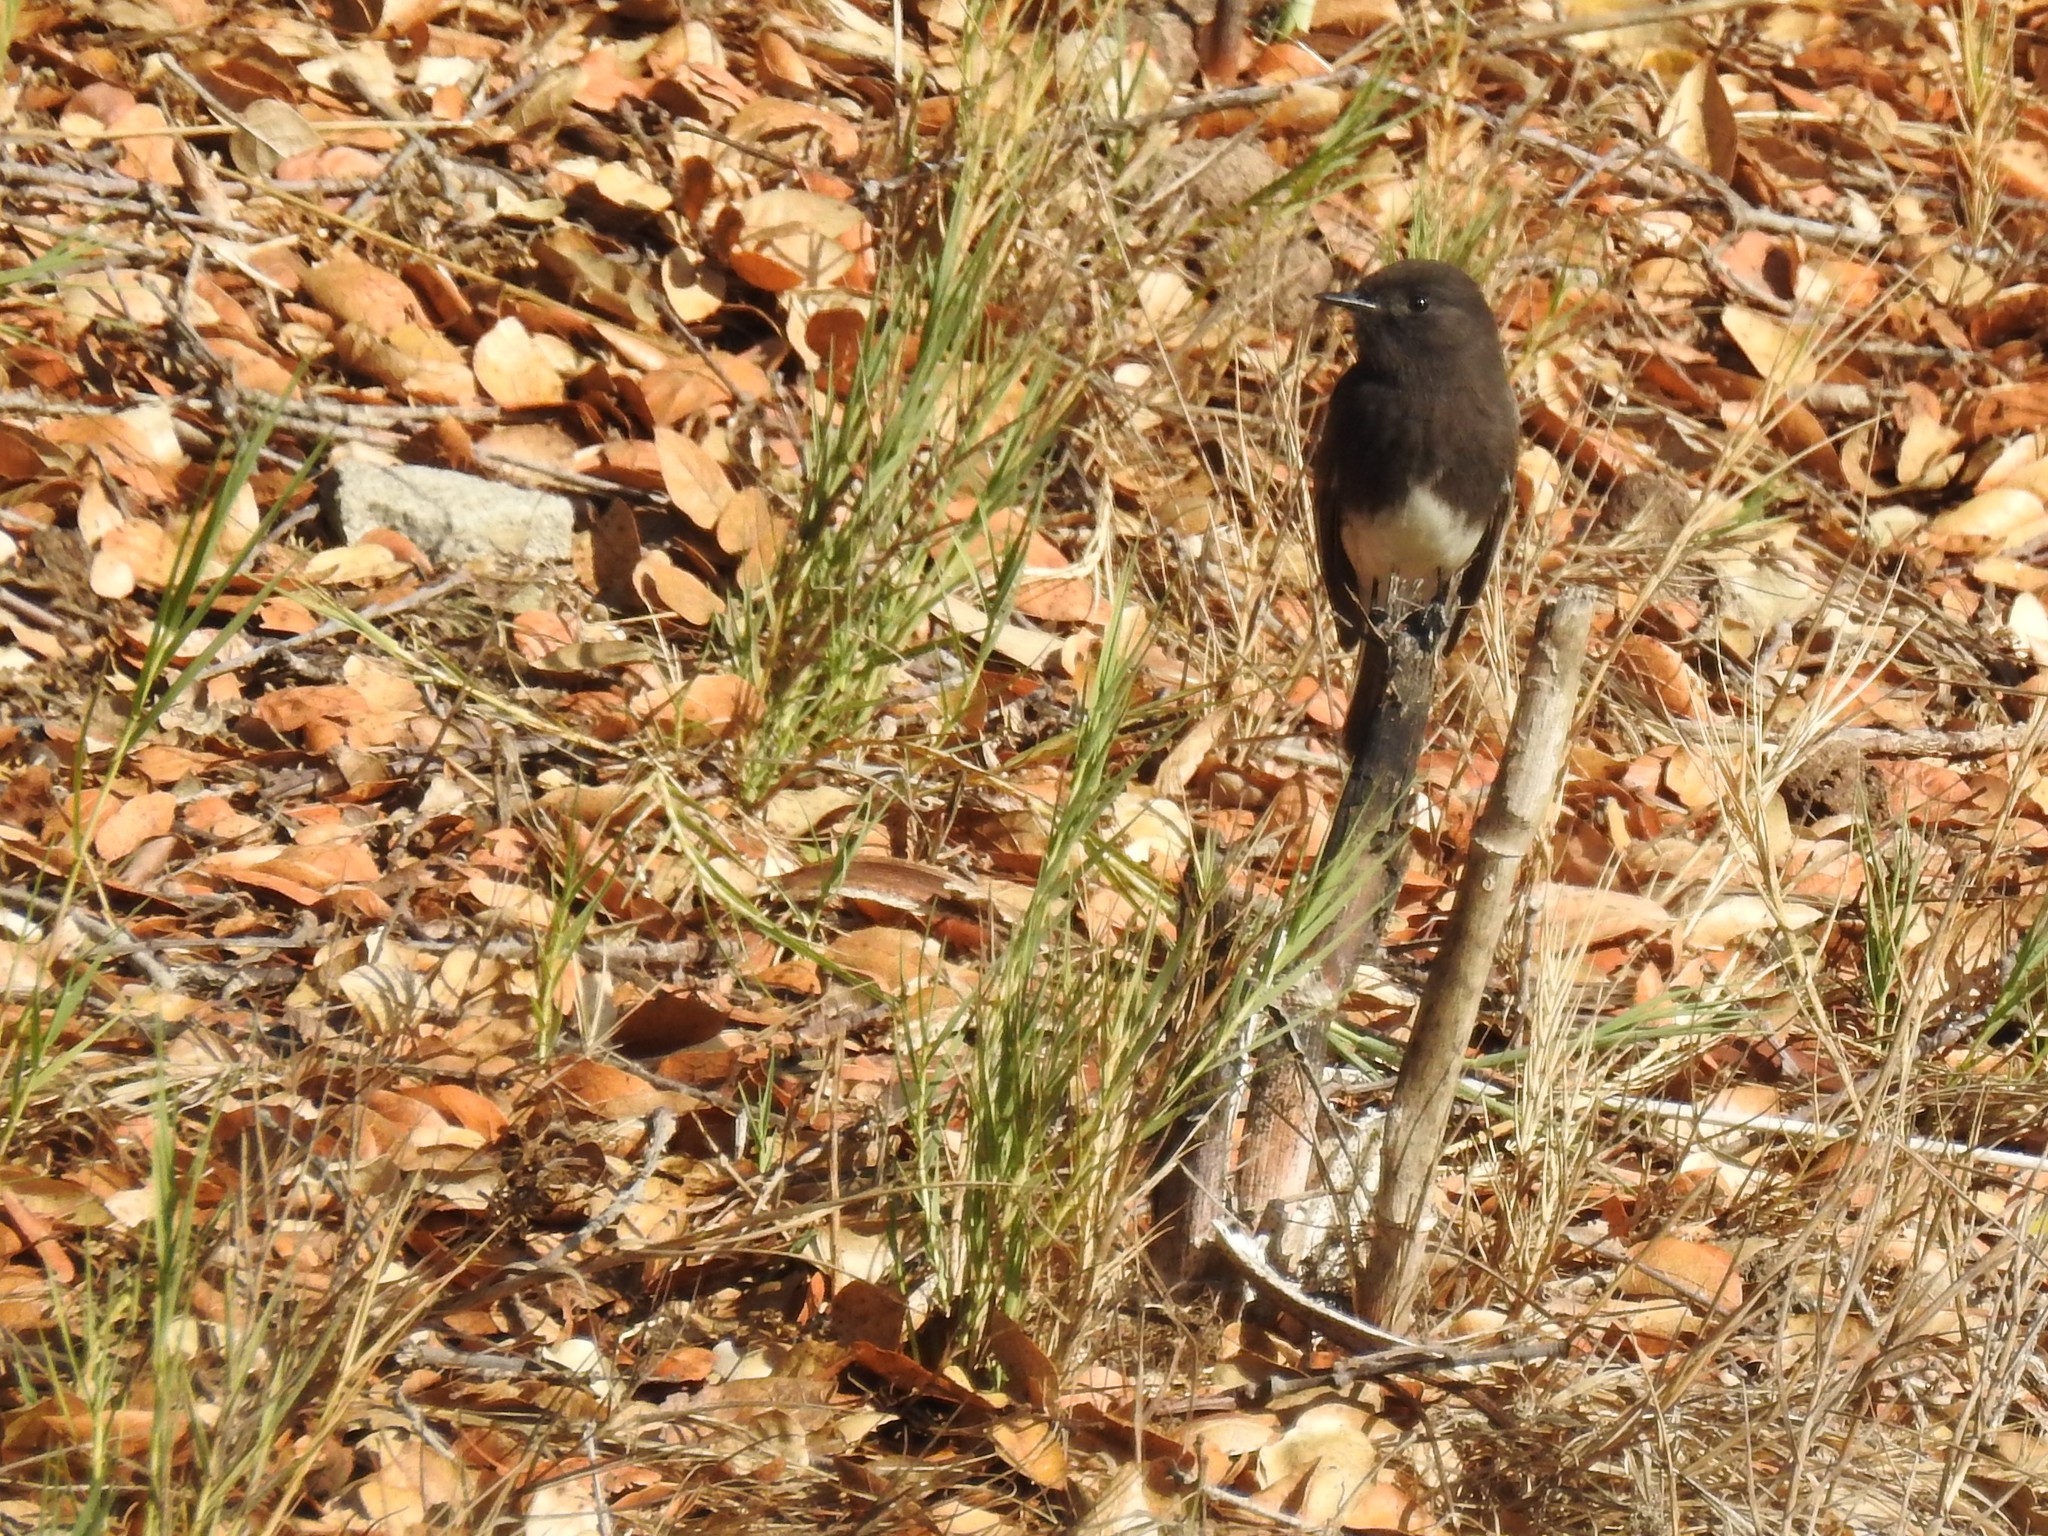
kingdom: Animalia
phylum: Chordata
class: Aves
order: Passeriformes
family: Tyrannidae
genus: Sayornis
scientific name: Sayornis nigricans
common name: Black phoebe
